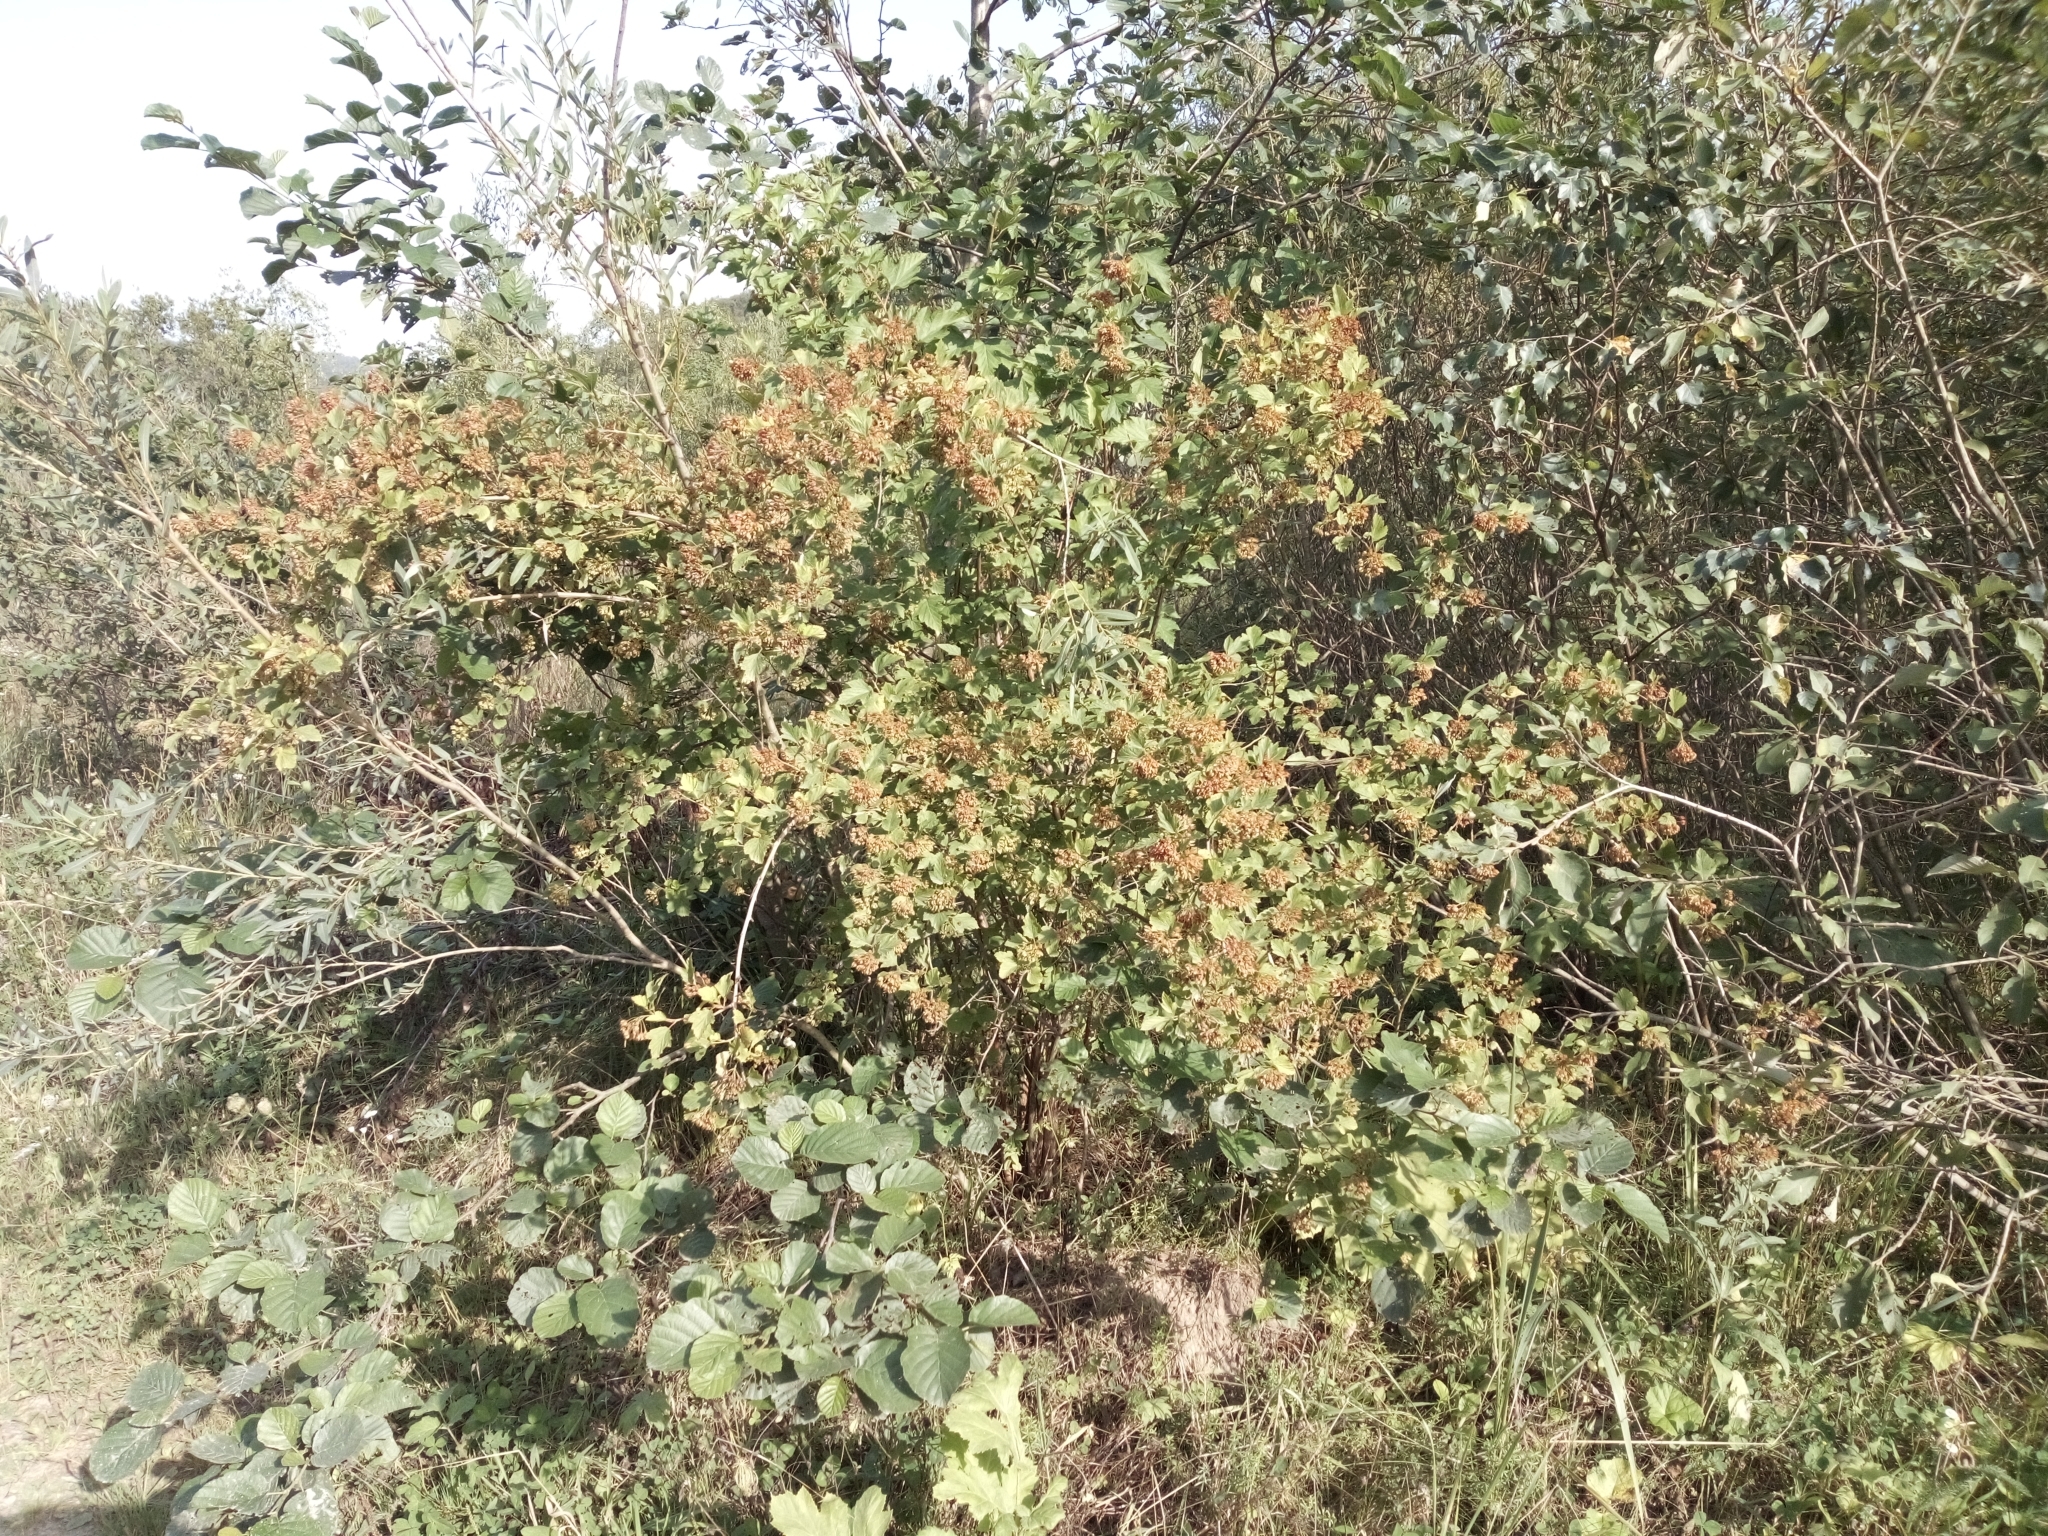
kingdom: Plantae
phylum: Tracheophyta
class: Magnoliopsida
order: Rosales
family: Rosaceae
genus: Physocarpus
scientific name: Physocarpus opulifolius
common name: Ninebark
